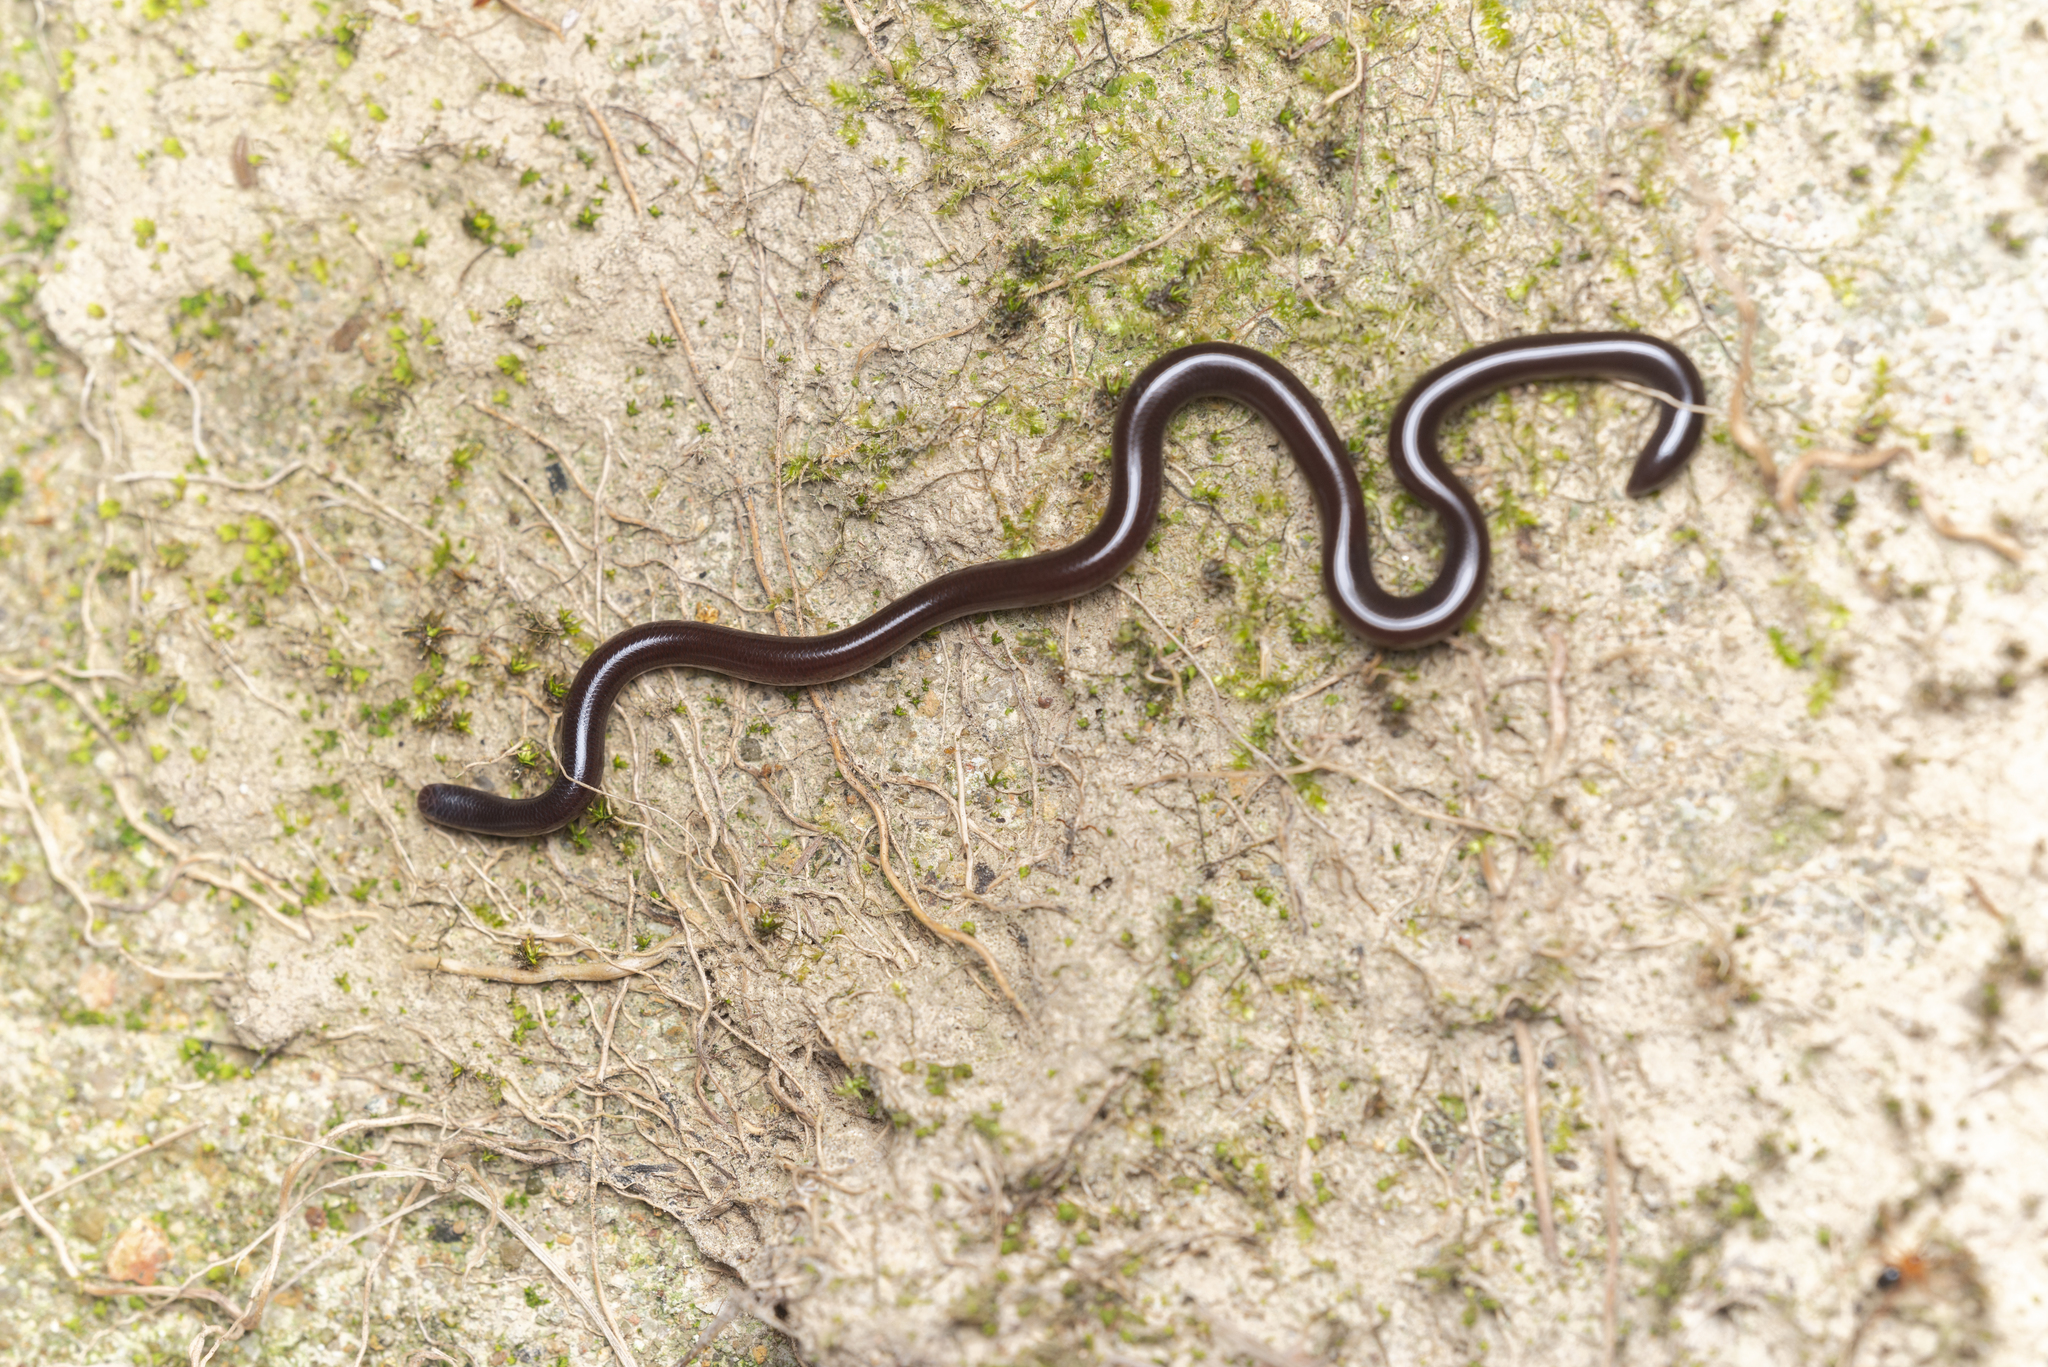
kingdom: Animalia
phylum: Chordata
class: Squamata
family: Typhlopidae
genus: Indotyphlops
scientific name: Indotyphlops braminus
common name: Brahminy blindsnake
